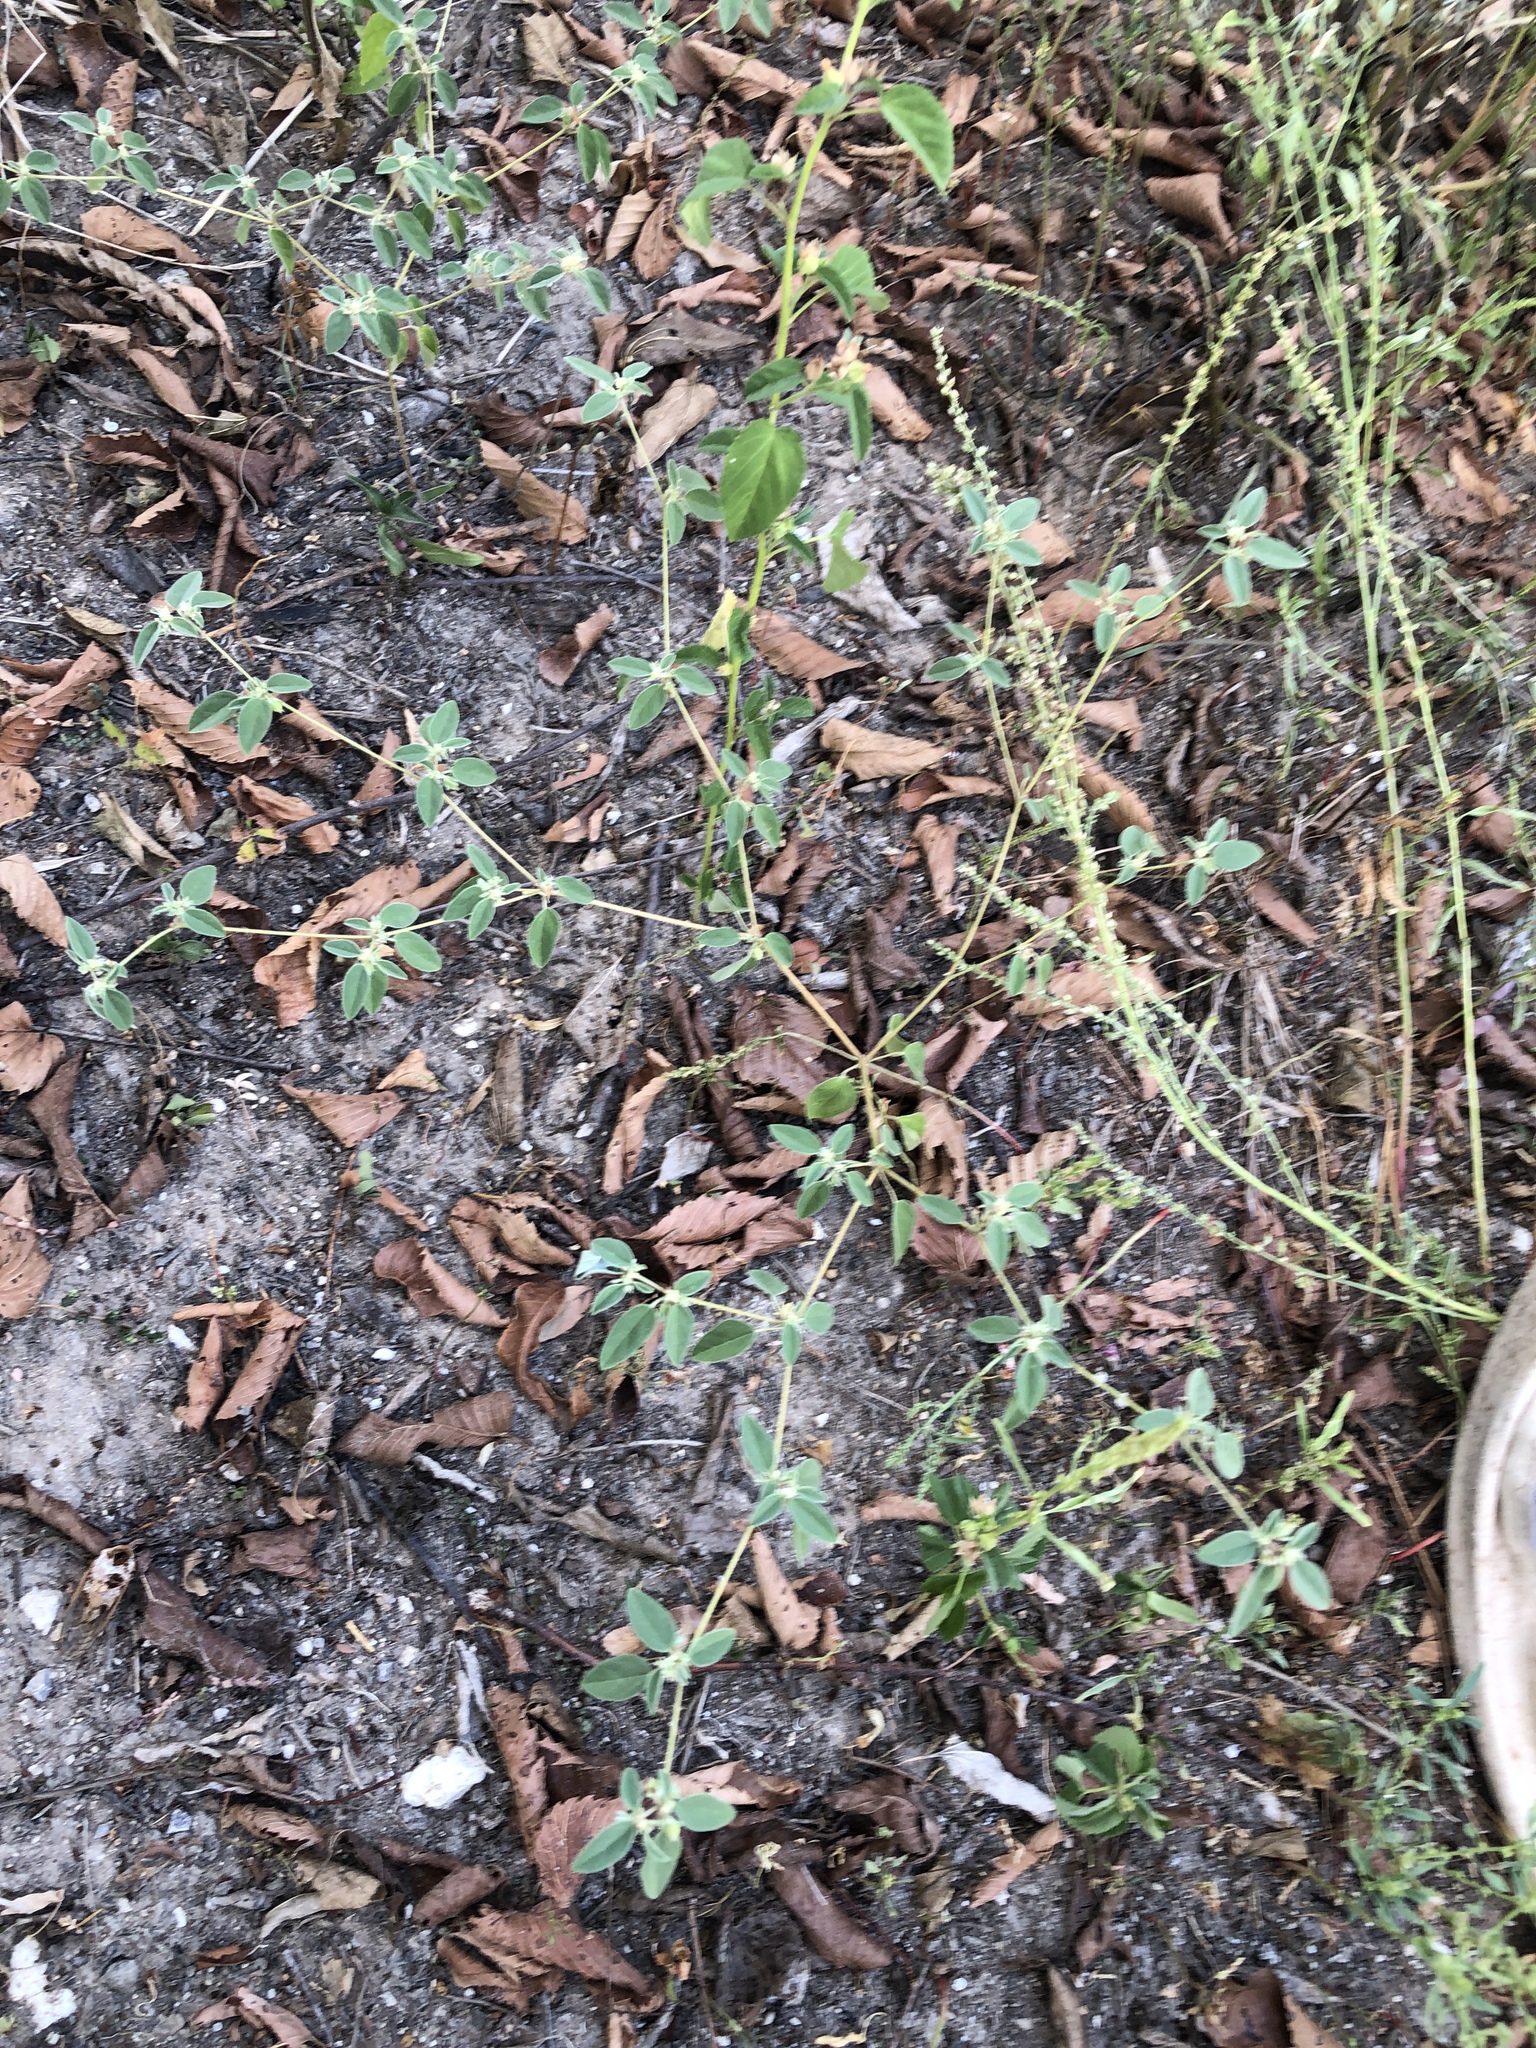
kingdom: Plantae
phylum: Tracheophyta
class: Magnoliopsida
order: Malpighiales
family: Euphorbiaceae
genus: Croton
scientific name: Croton monanthogynus
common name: One-seed croton
